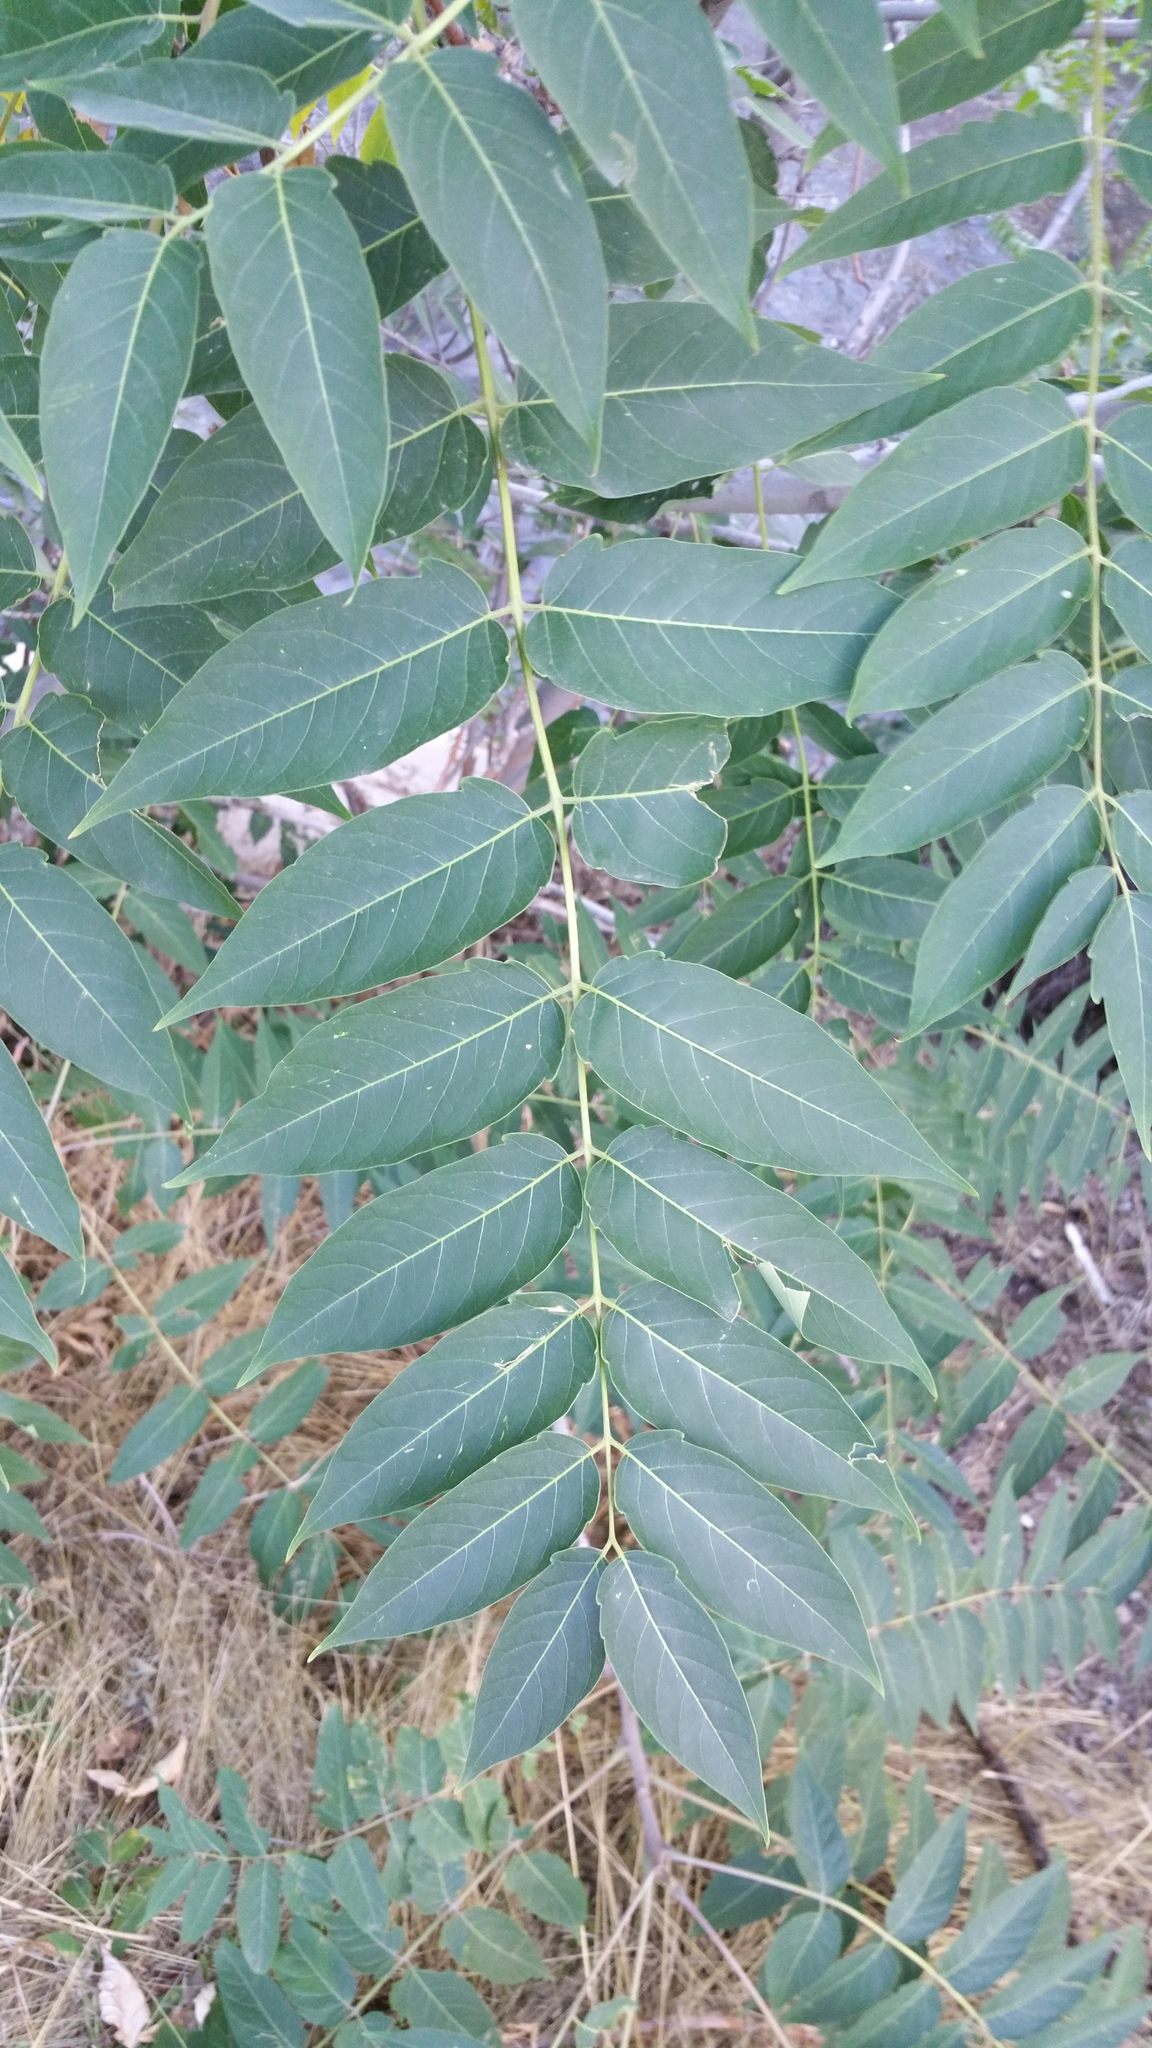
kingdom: Plantae
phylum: Tracheophyta
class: Magnoliopsida
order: Sapindales
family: Simaroubaceae
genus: Ailanthus
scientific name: Ailanthus altissima
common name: Tree-of-heaven
